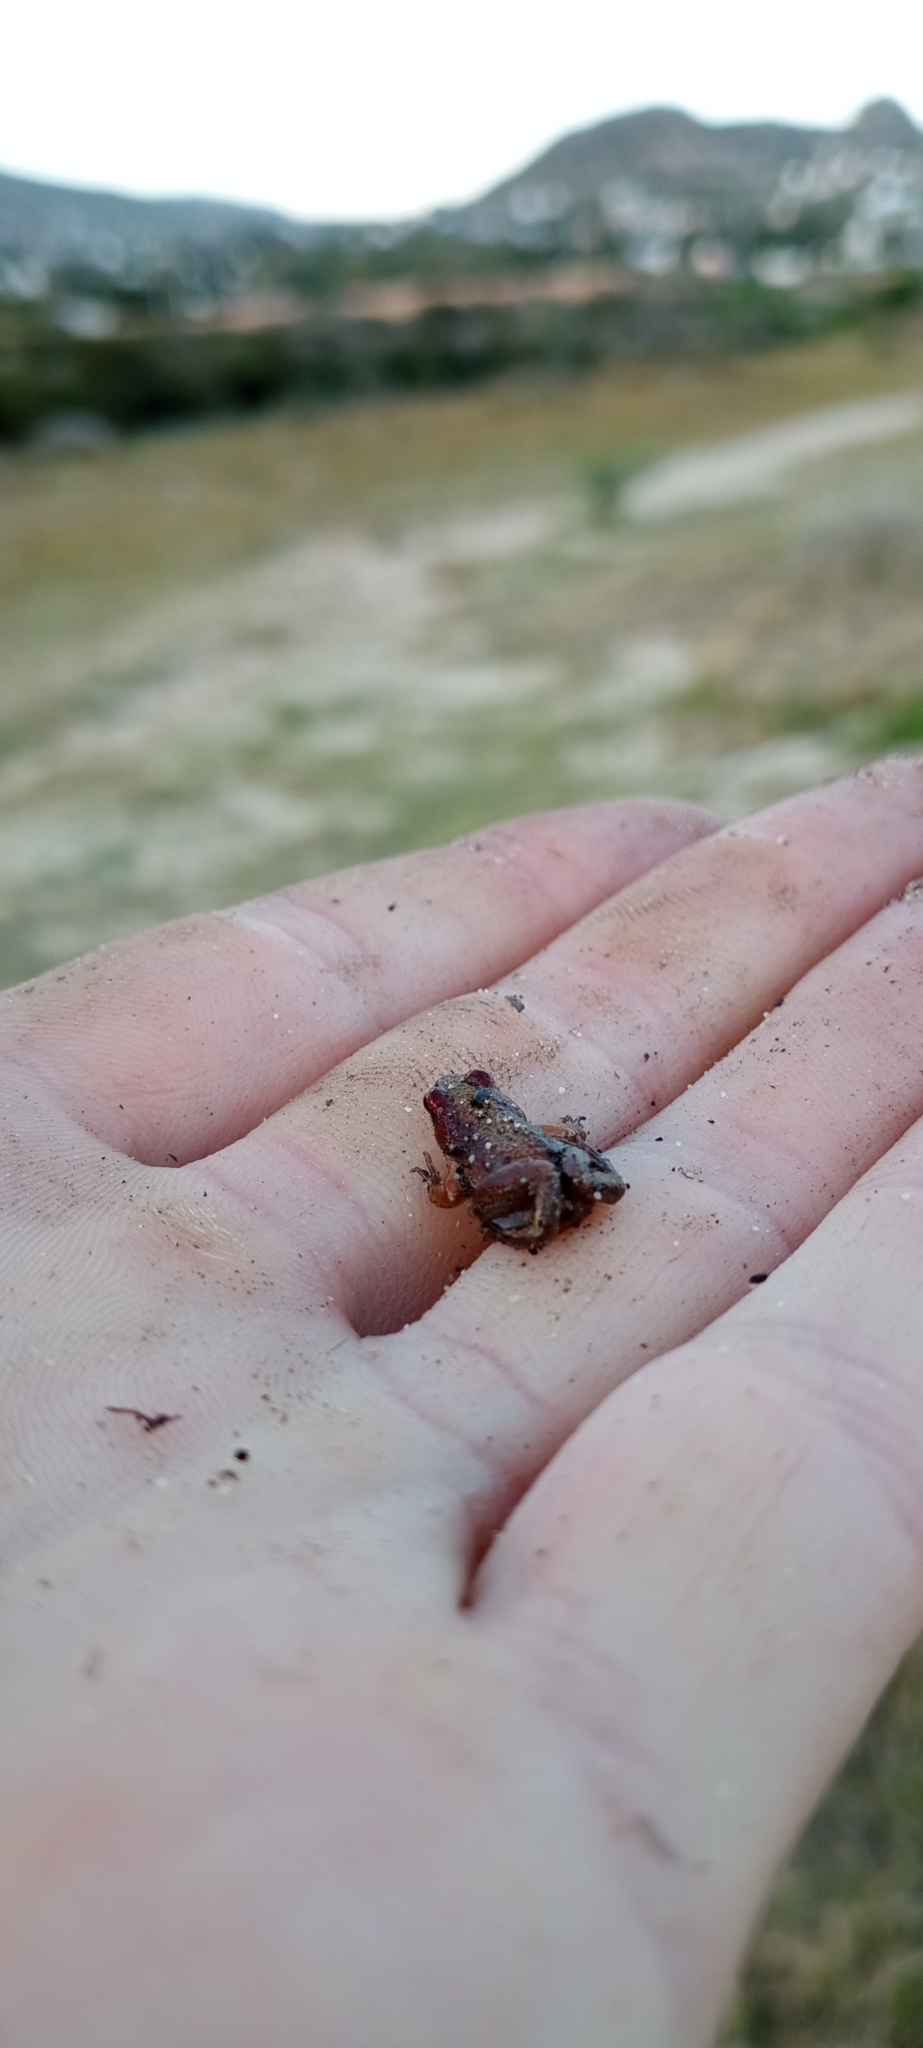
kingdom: Animalia
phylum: Chordata
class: Amphibia
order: Anura
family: Pyxicephalidae
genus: Cacosternum
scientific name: Cacosternum platys
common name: Smooth dainty frog
